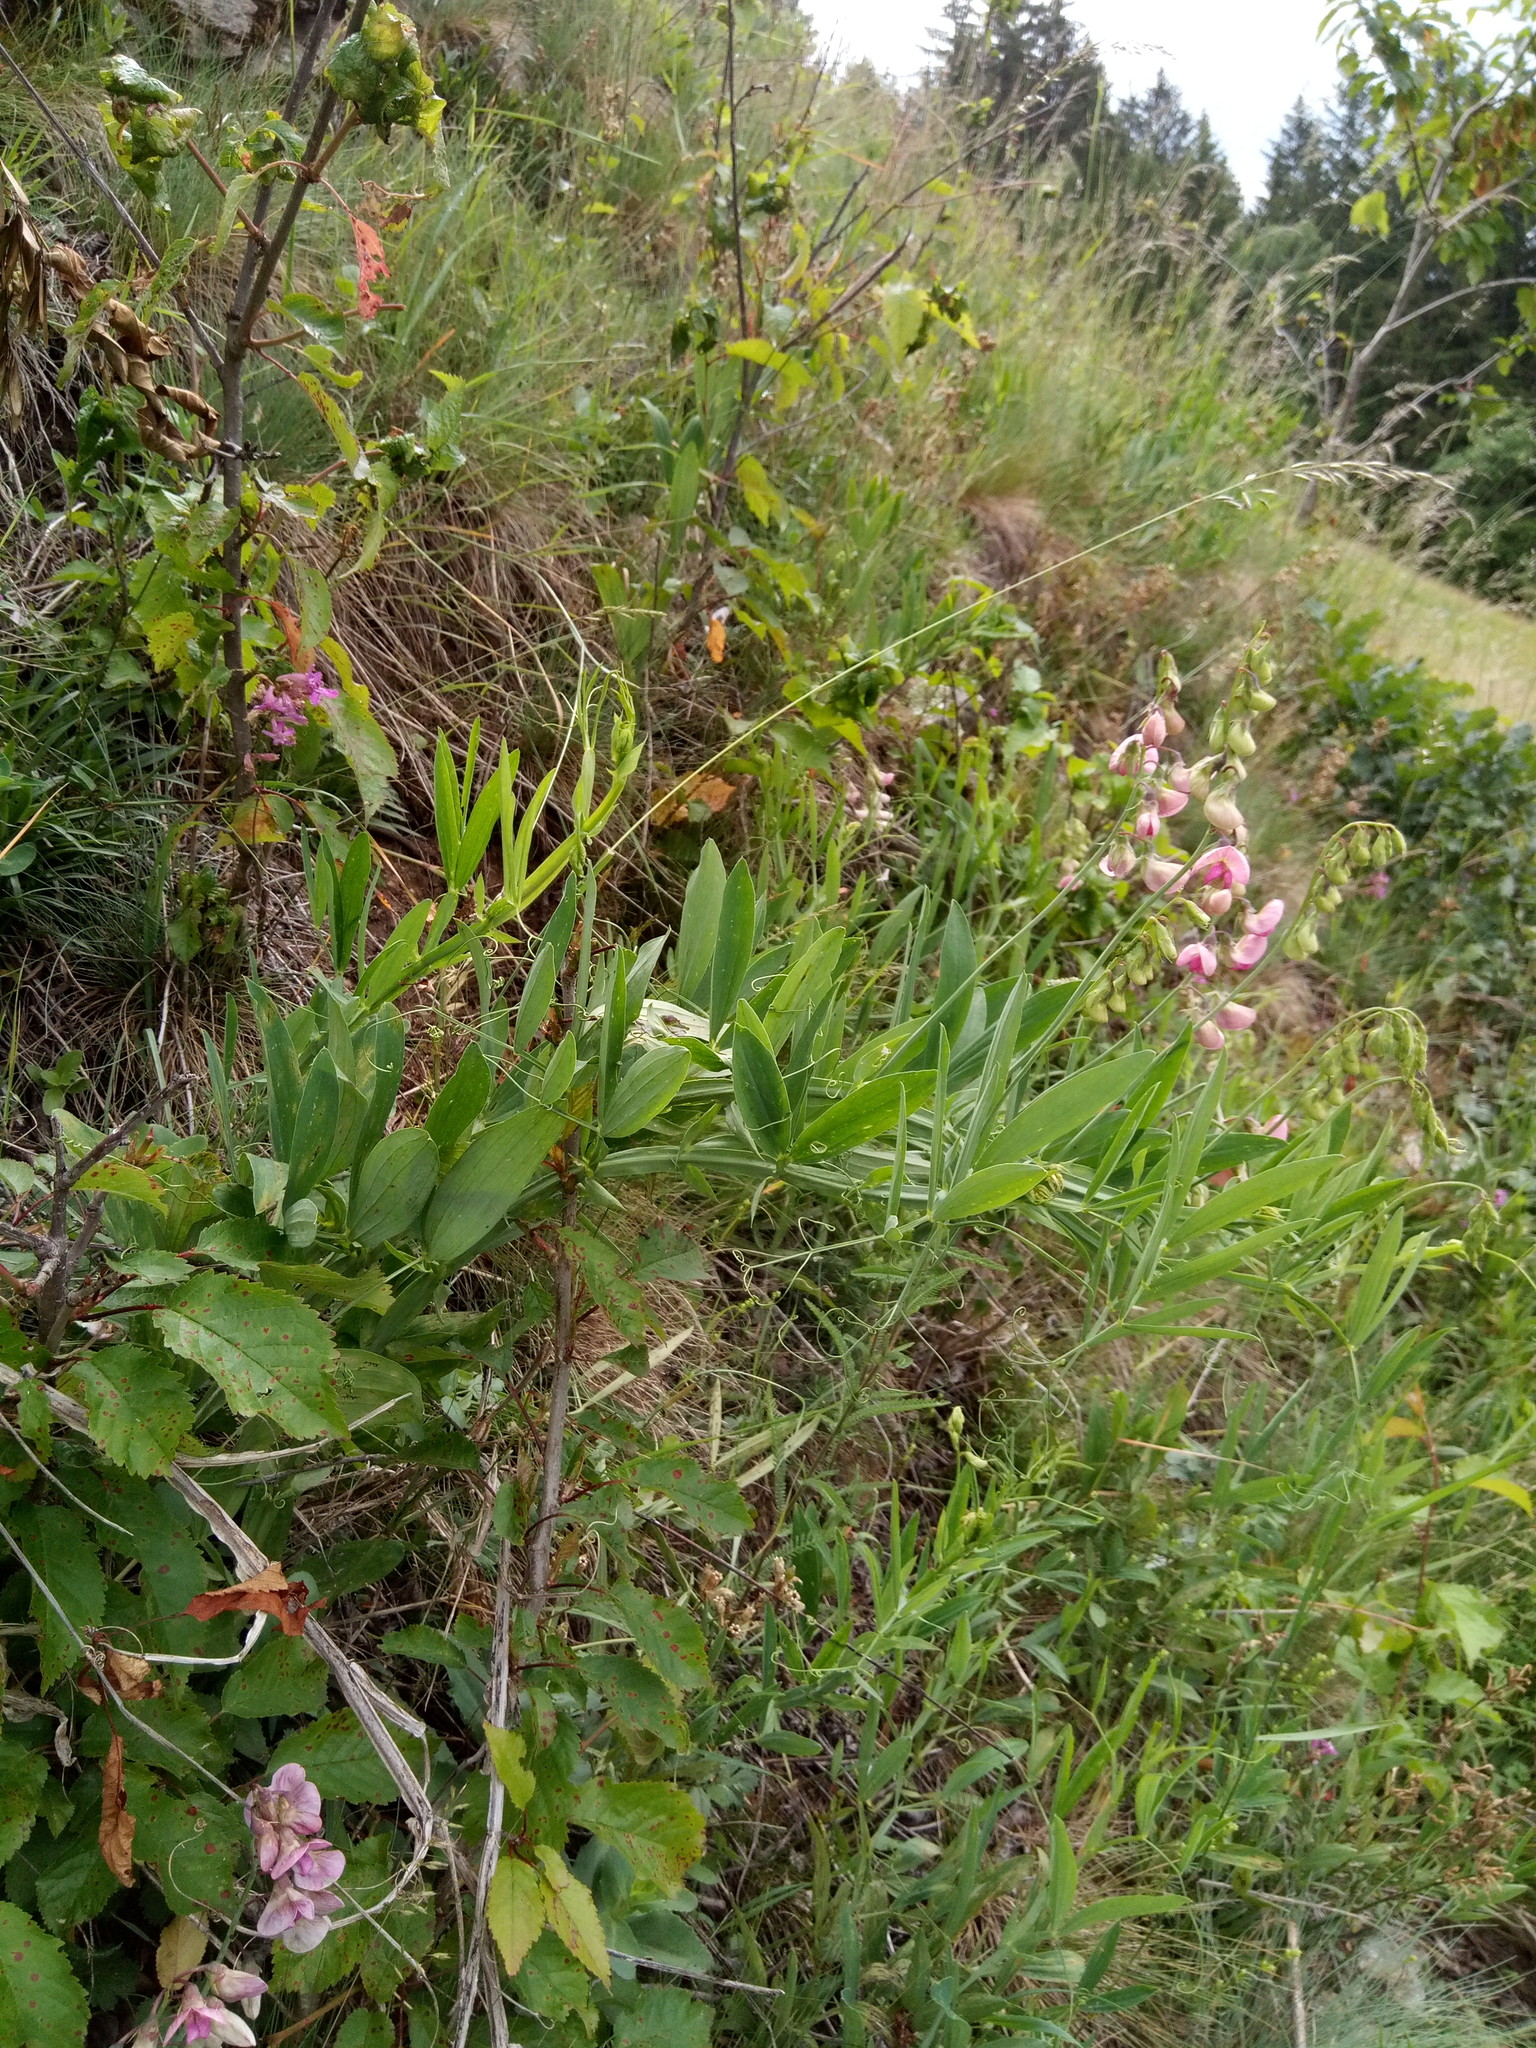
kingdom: Plantae
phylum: Tracheophyta
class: Magnoliopsida
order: Fabales
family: Fabaceae
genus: Lathyrus
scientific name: Lathyrus latifolius
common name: Perennial pea
